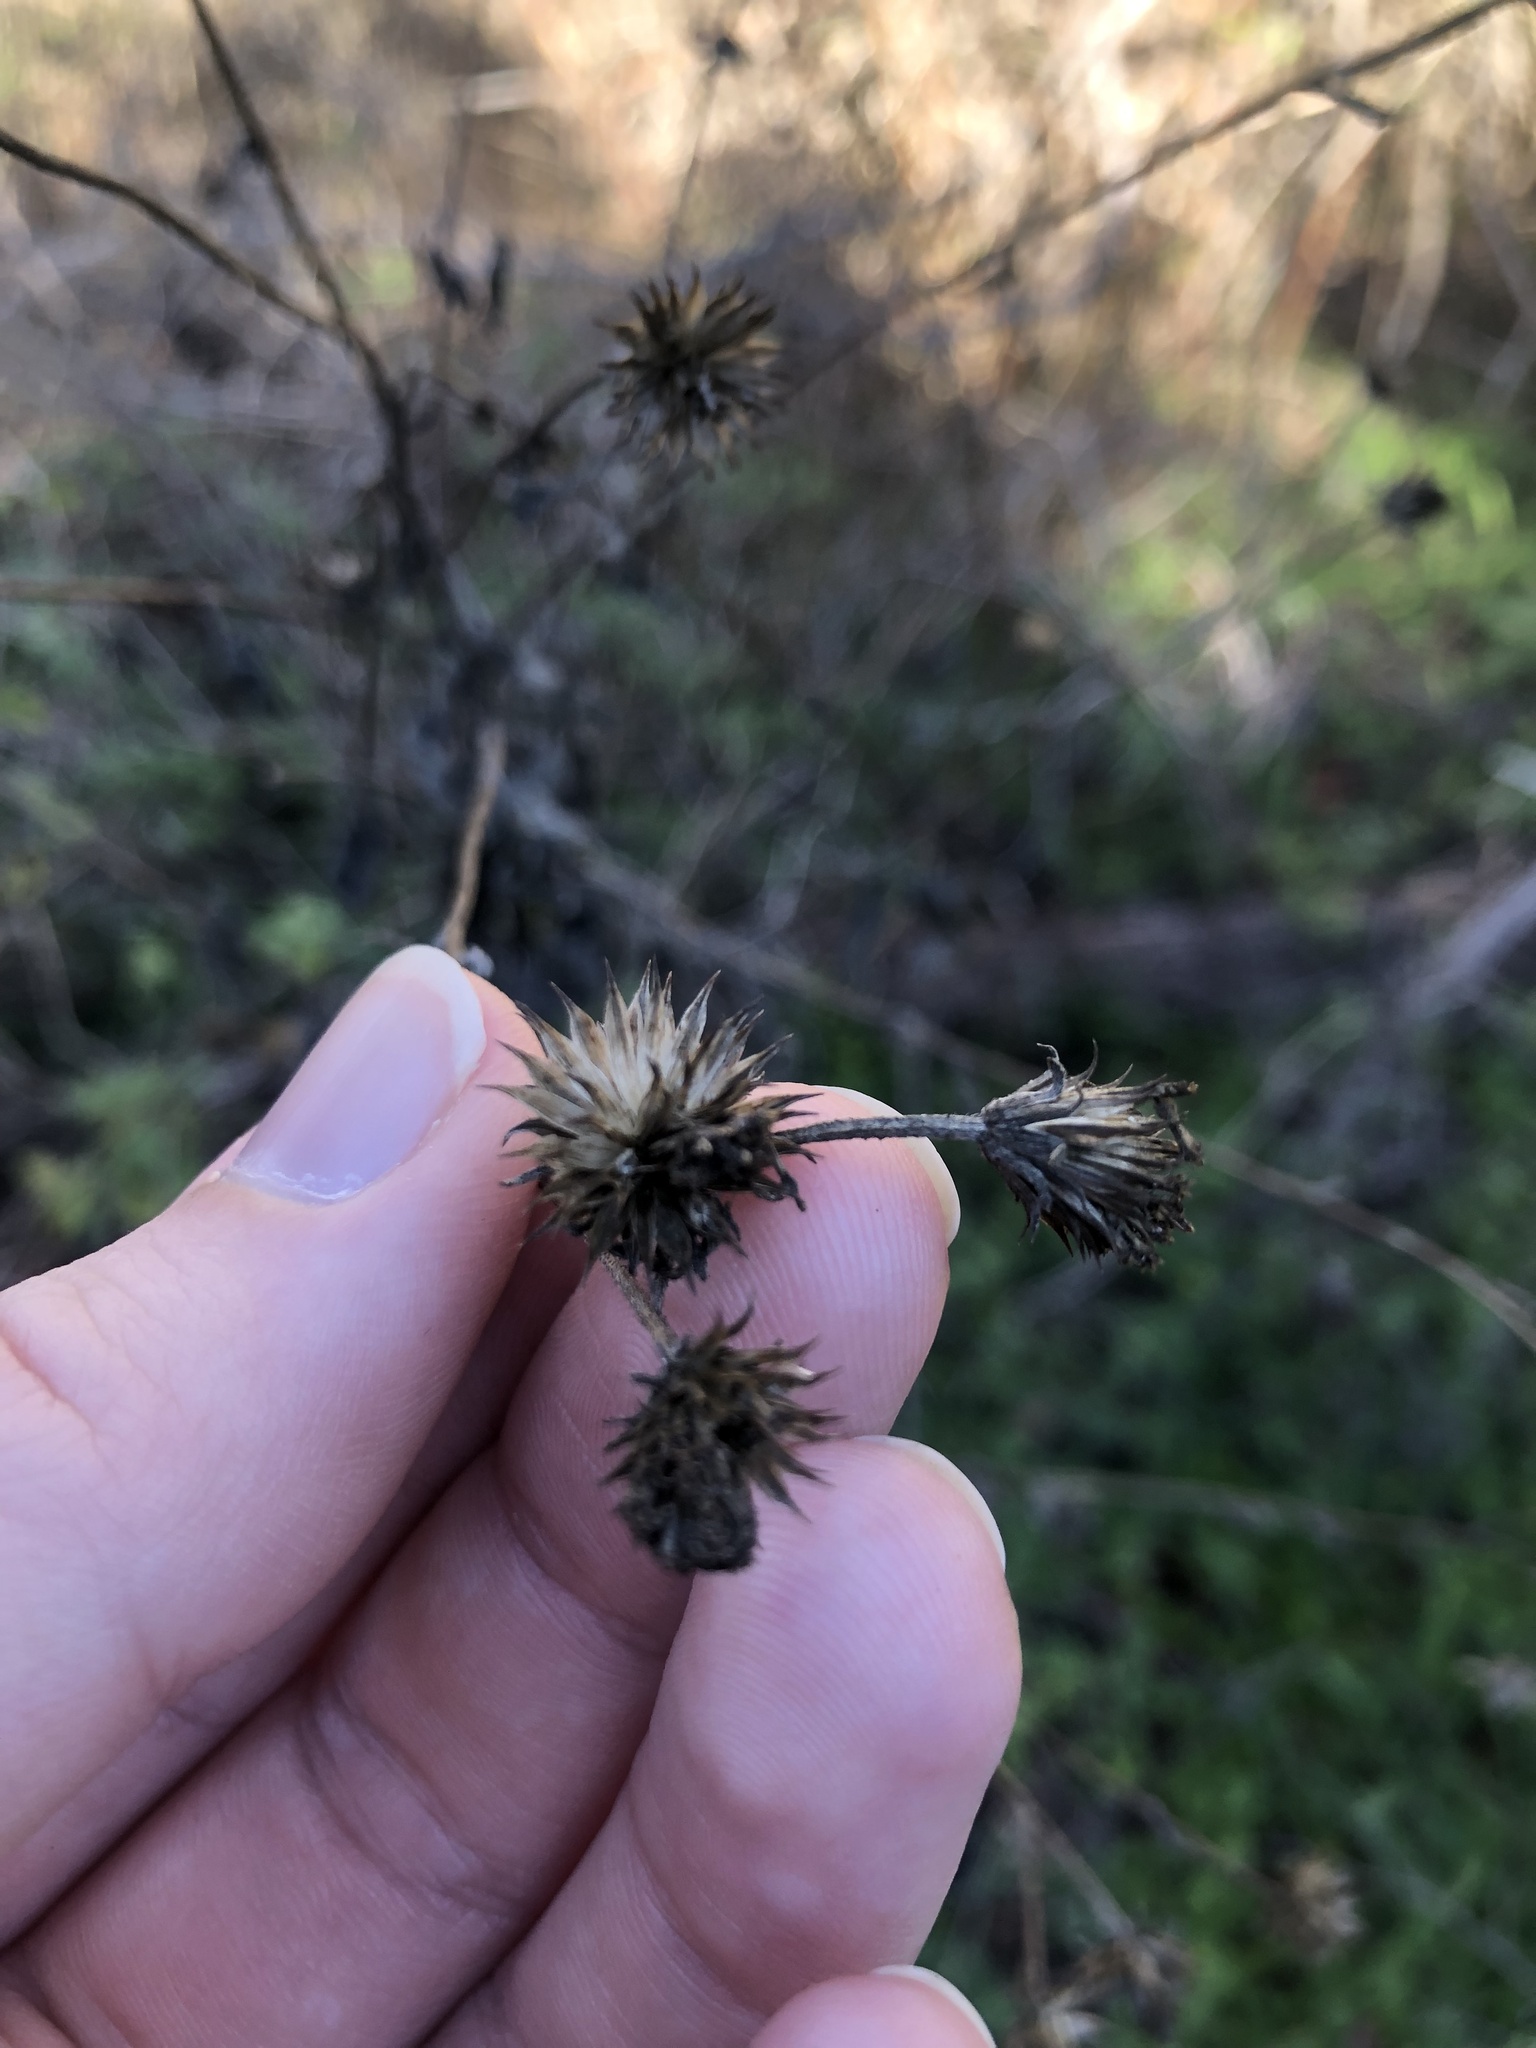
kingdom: Plantae
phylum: Tracheophyta
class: Magnoliopsida
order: Asterales
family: Asteraceae
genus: Viguiera
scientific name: Viguiera dentata
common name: Toothleaf
